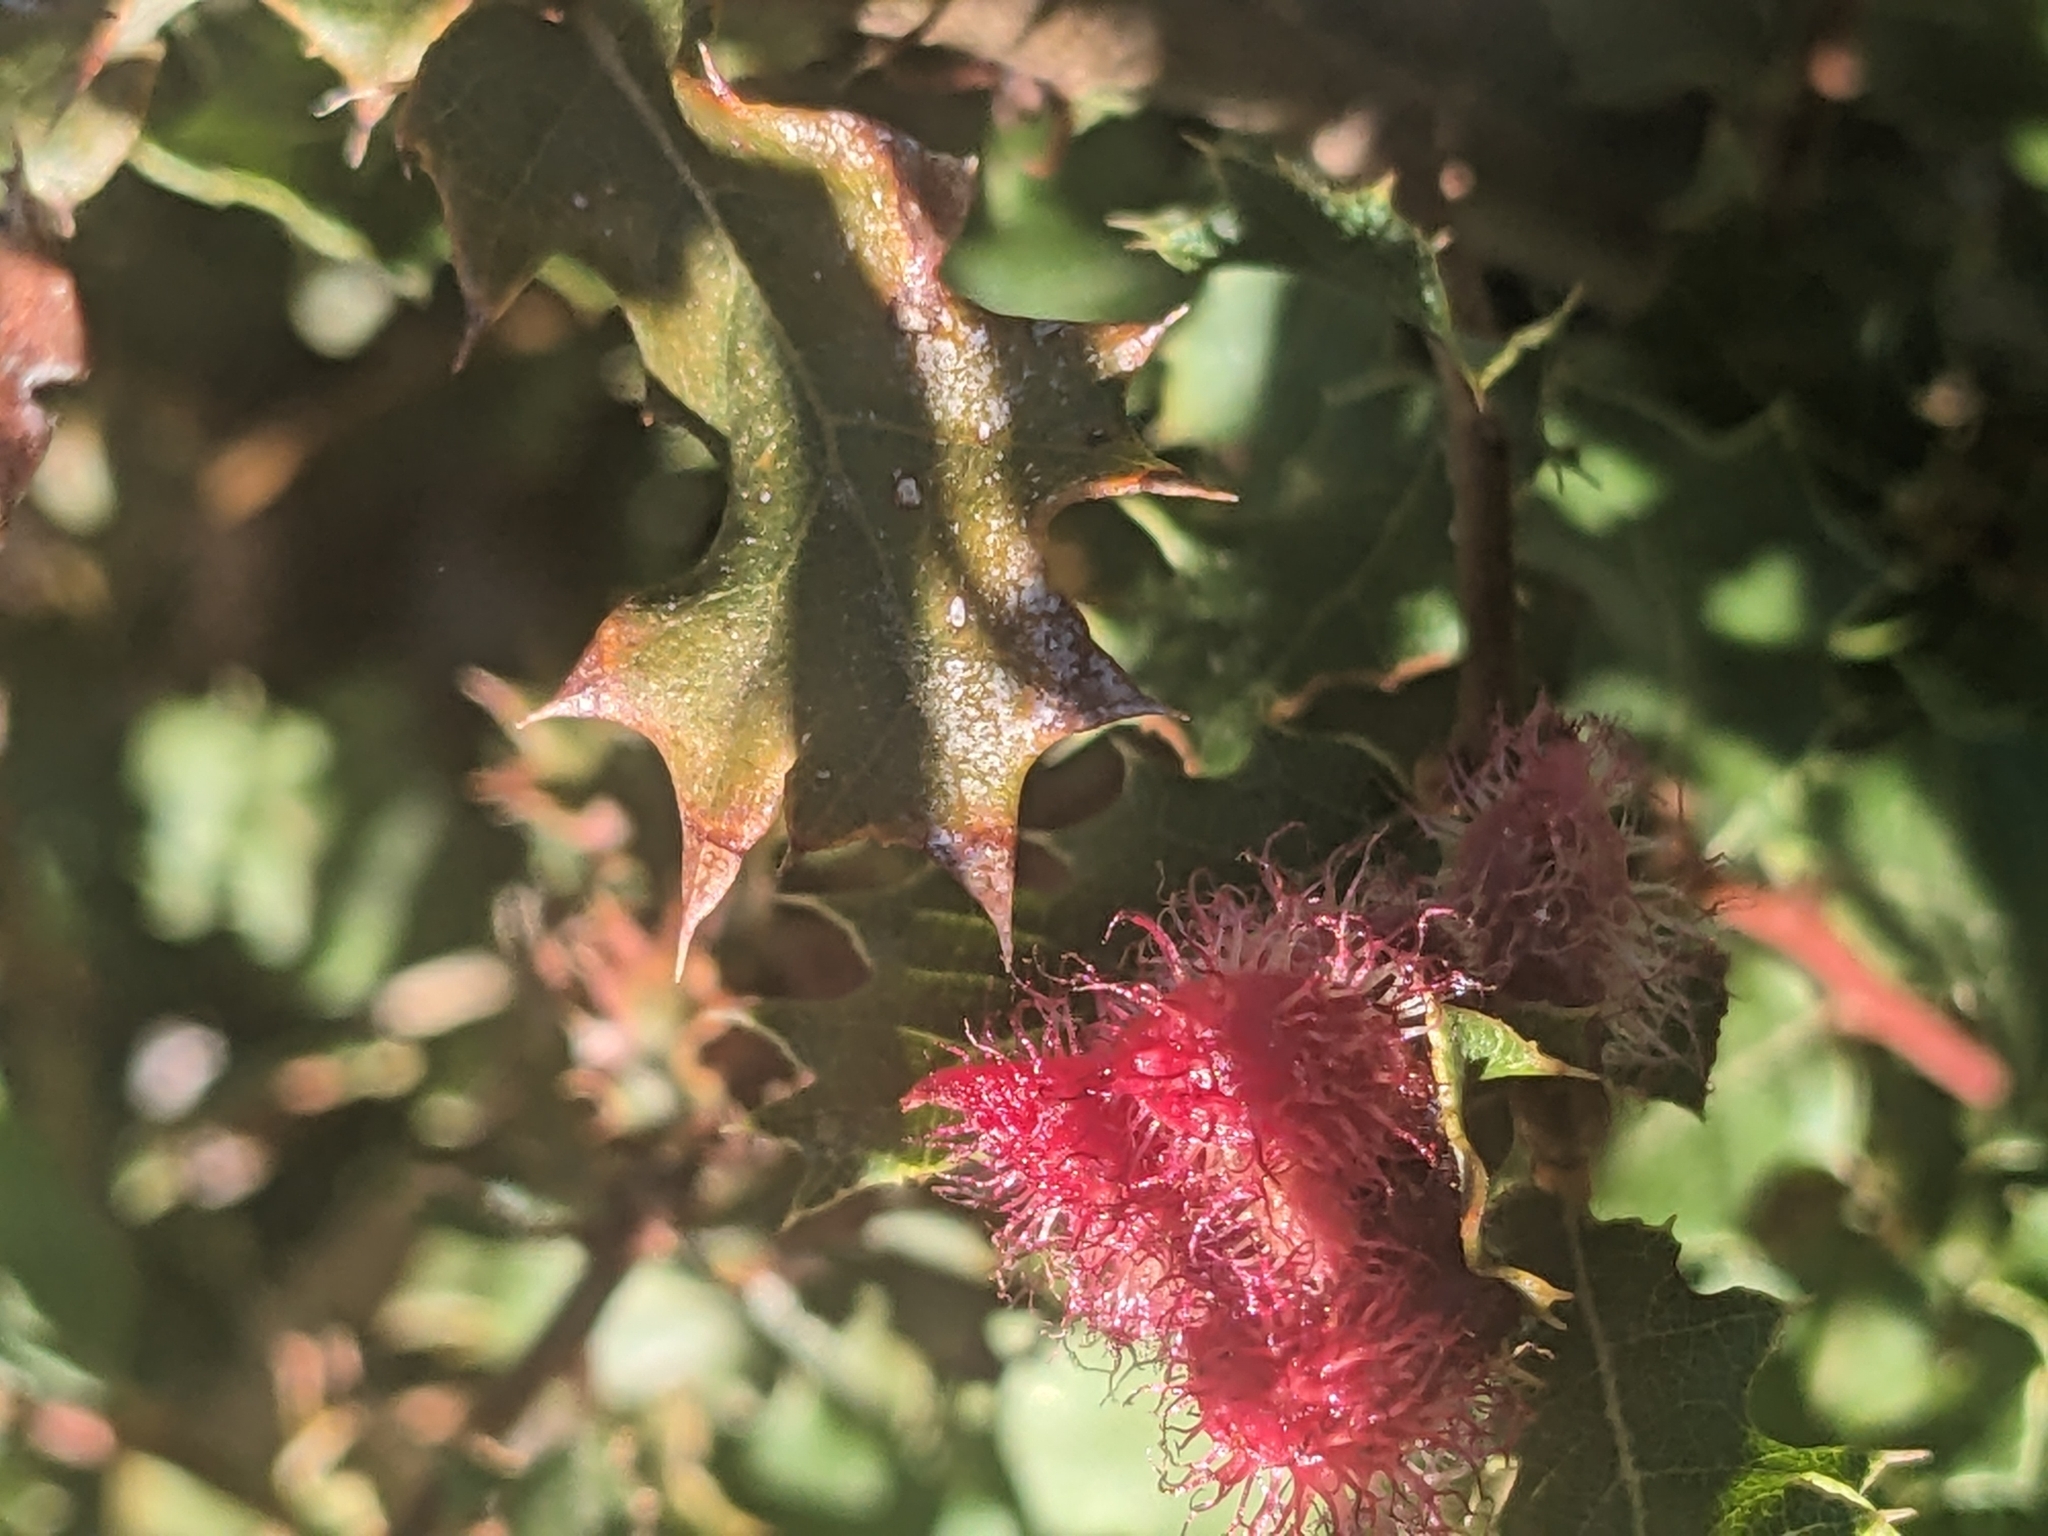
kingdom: Animalia
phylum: Arthropoda
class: Insecta
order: Hymenoptera
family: Cynipidae
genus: Andricus
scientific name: Andricus
